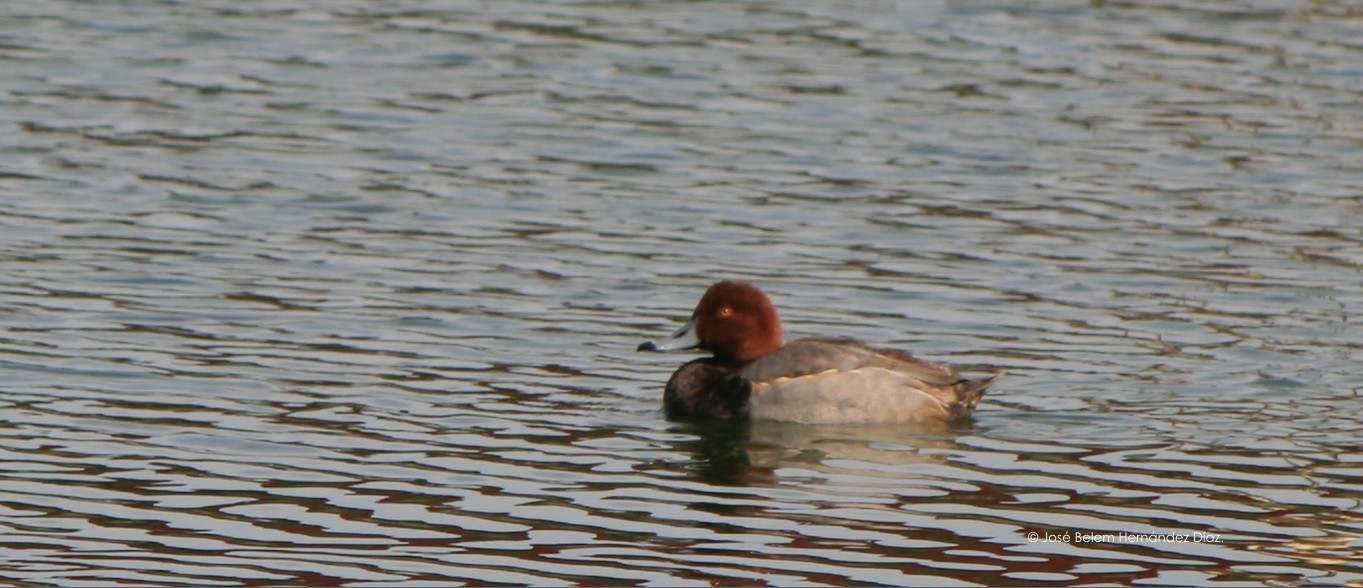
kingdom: Animalia
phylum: Chordata
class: Aves
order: Anseriformes
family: Anatidae
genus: Aythya
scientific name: Aythya americana
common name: Redhead
